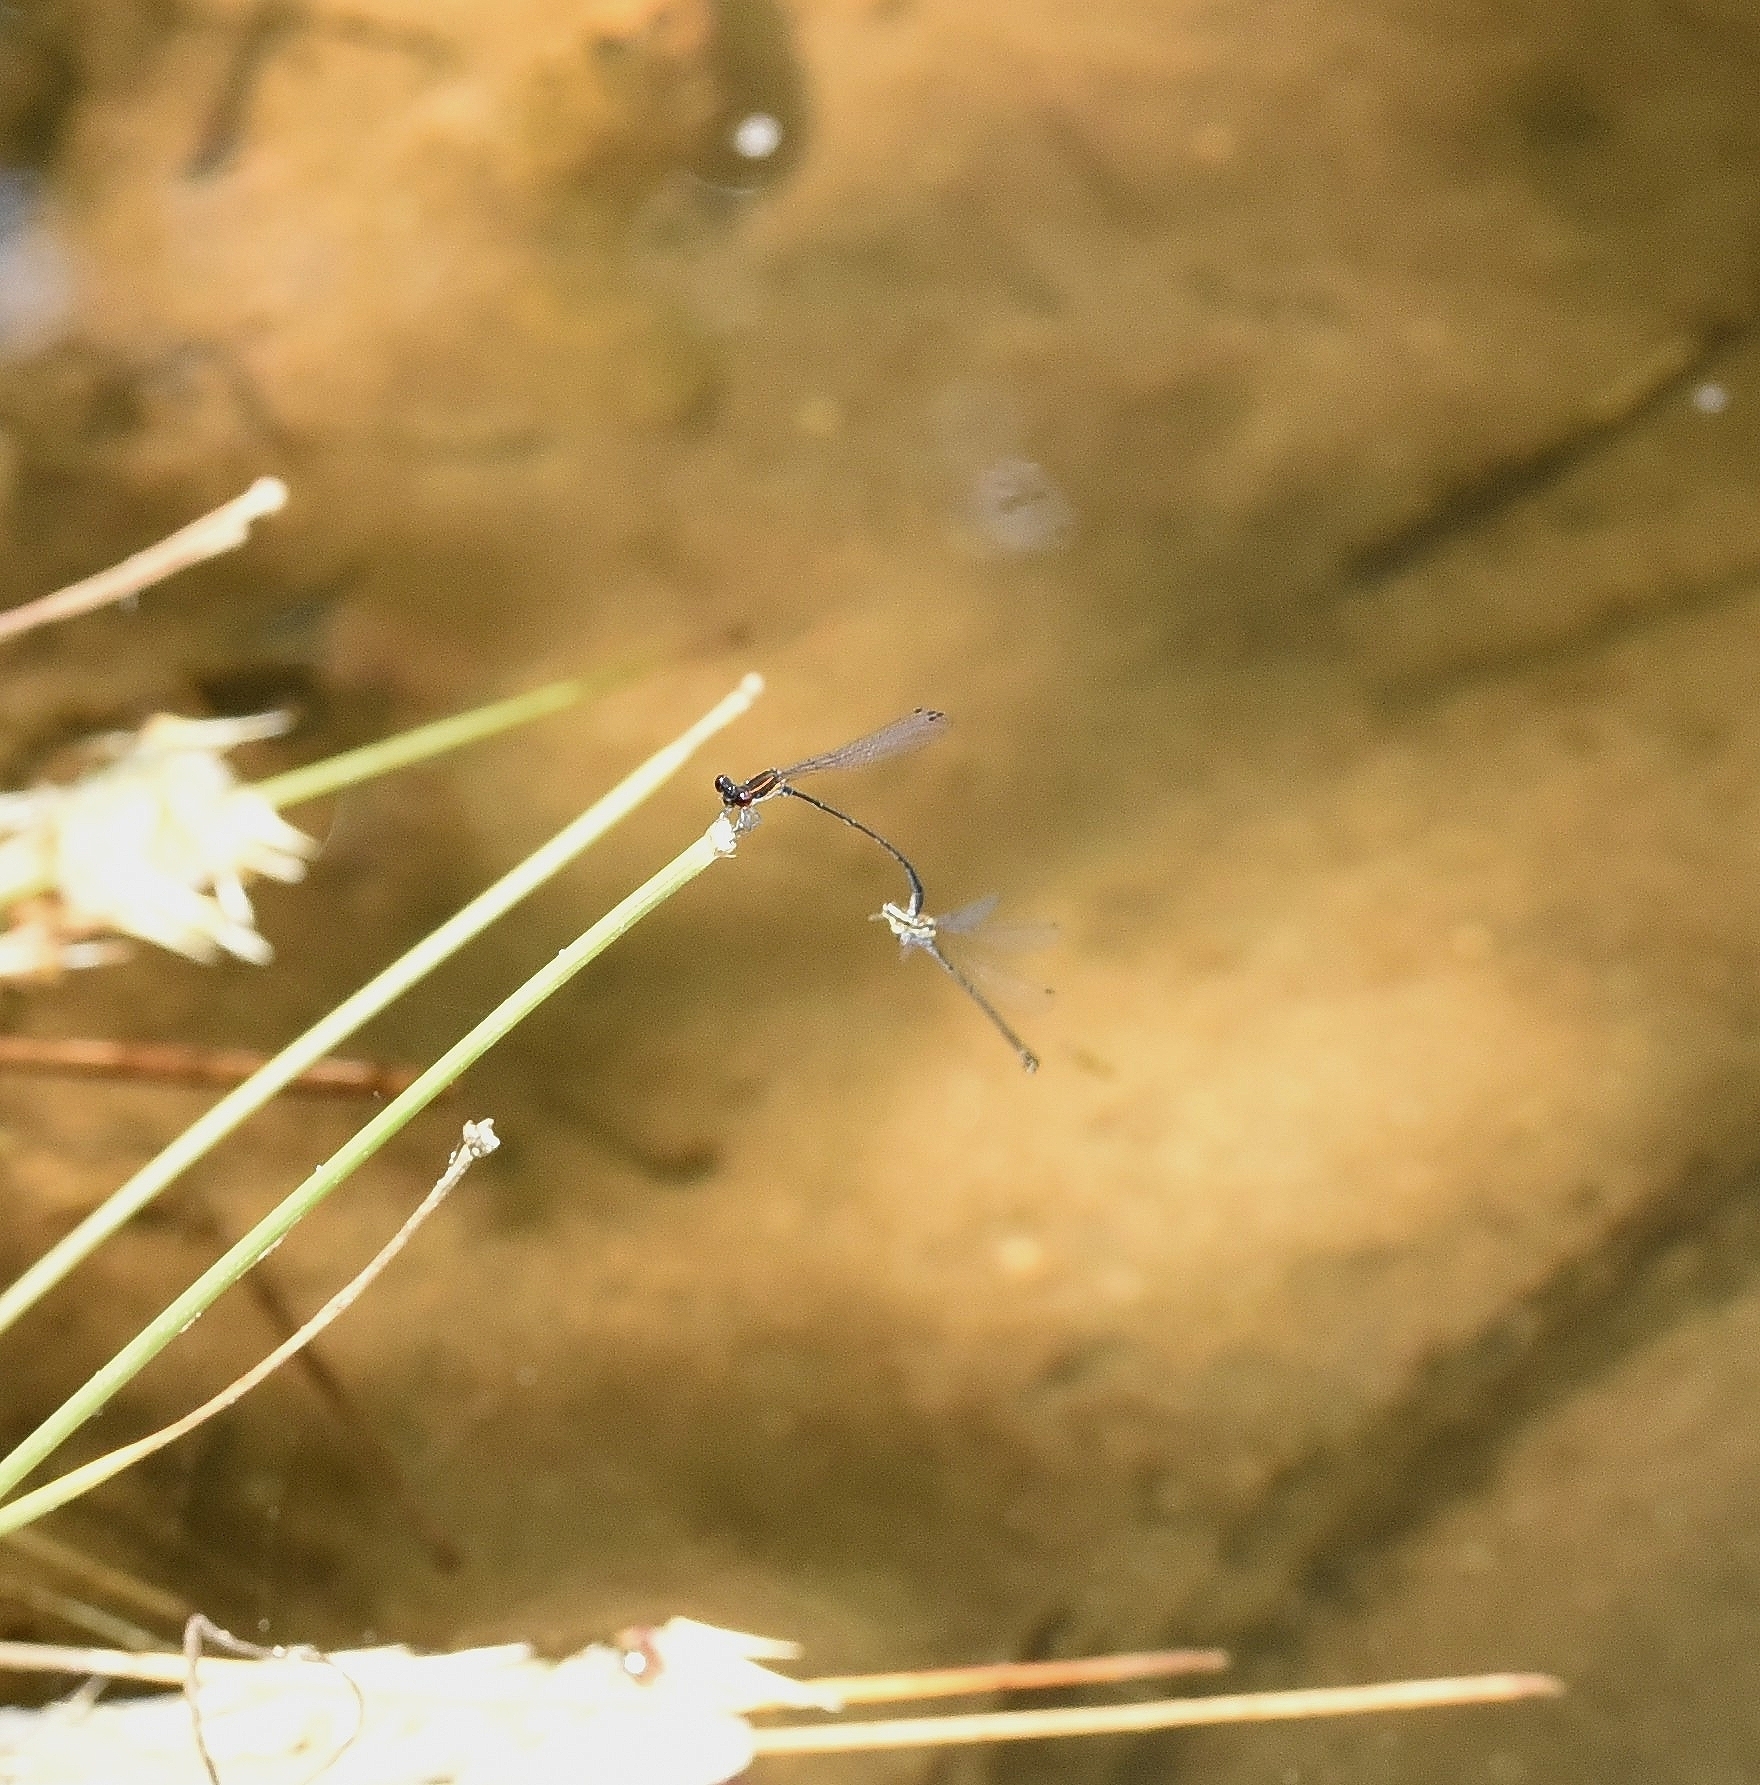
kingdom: Animalia
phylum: Arthropoda
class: Insecta
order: Odonata
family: Platycnemididae
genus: Prodasineura
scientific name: Prodasineura verticalis
